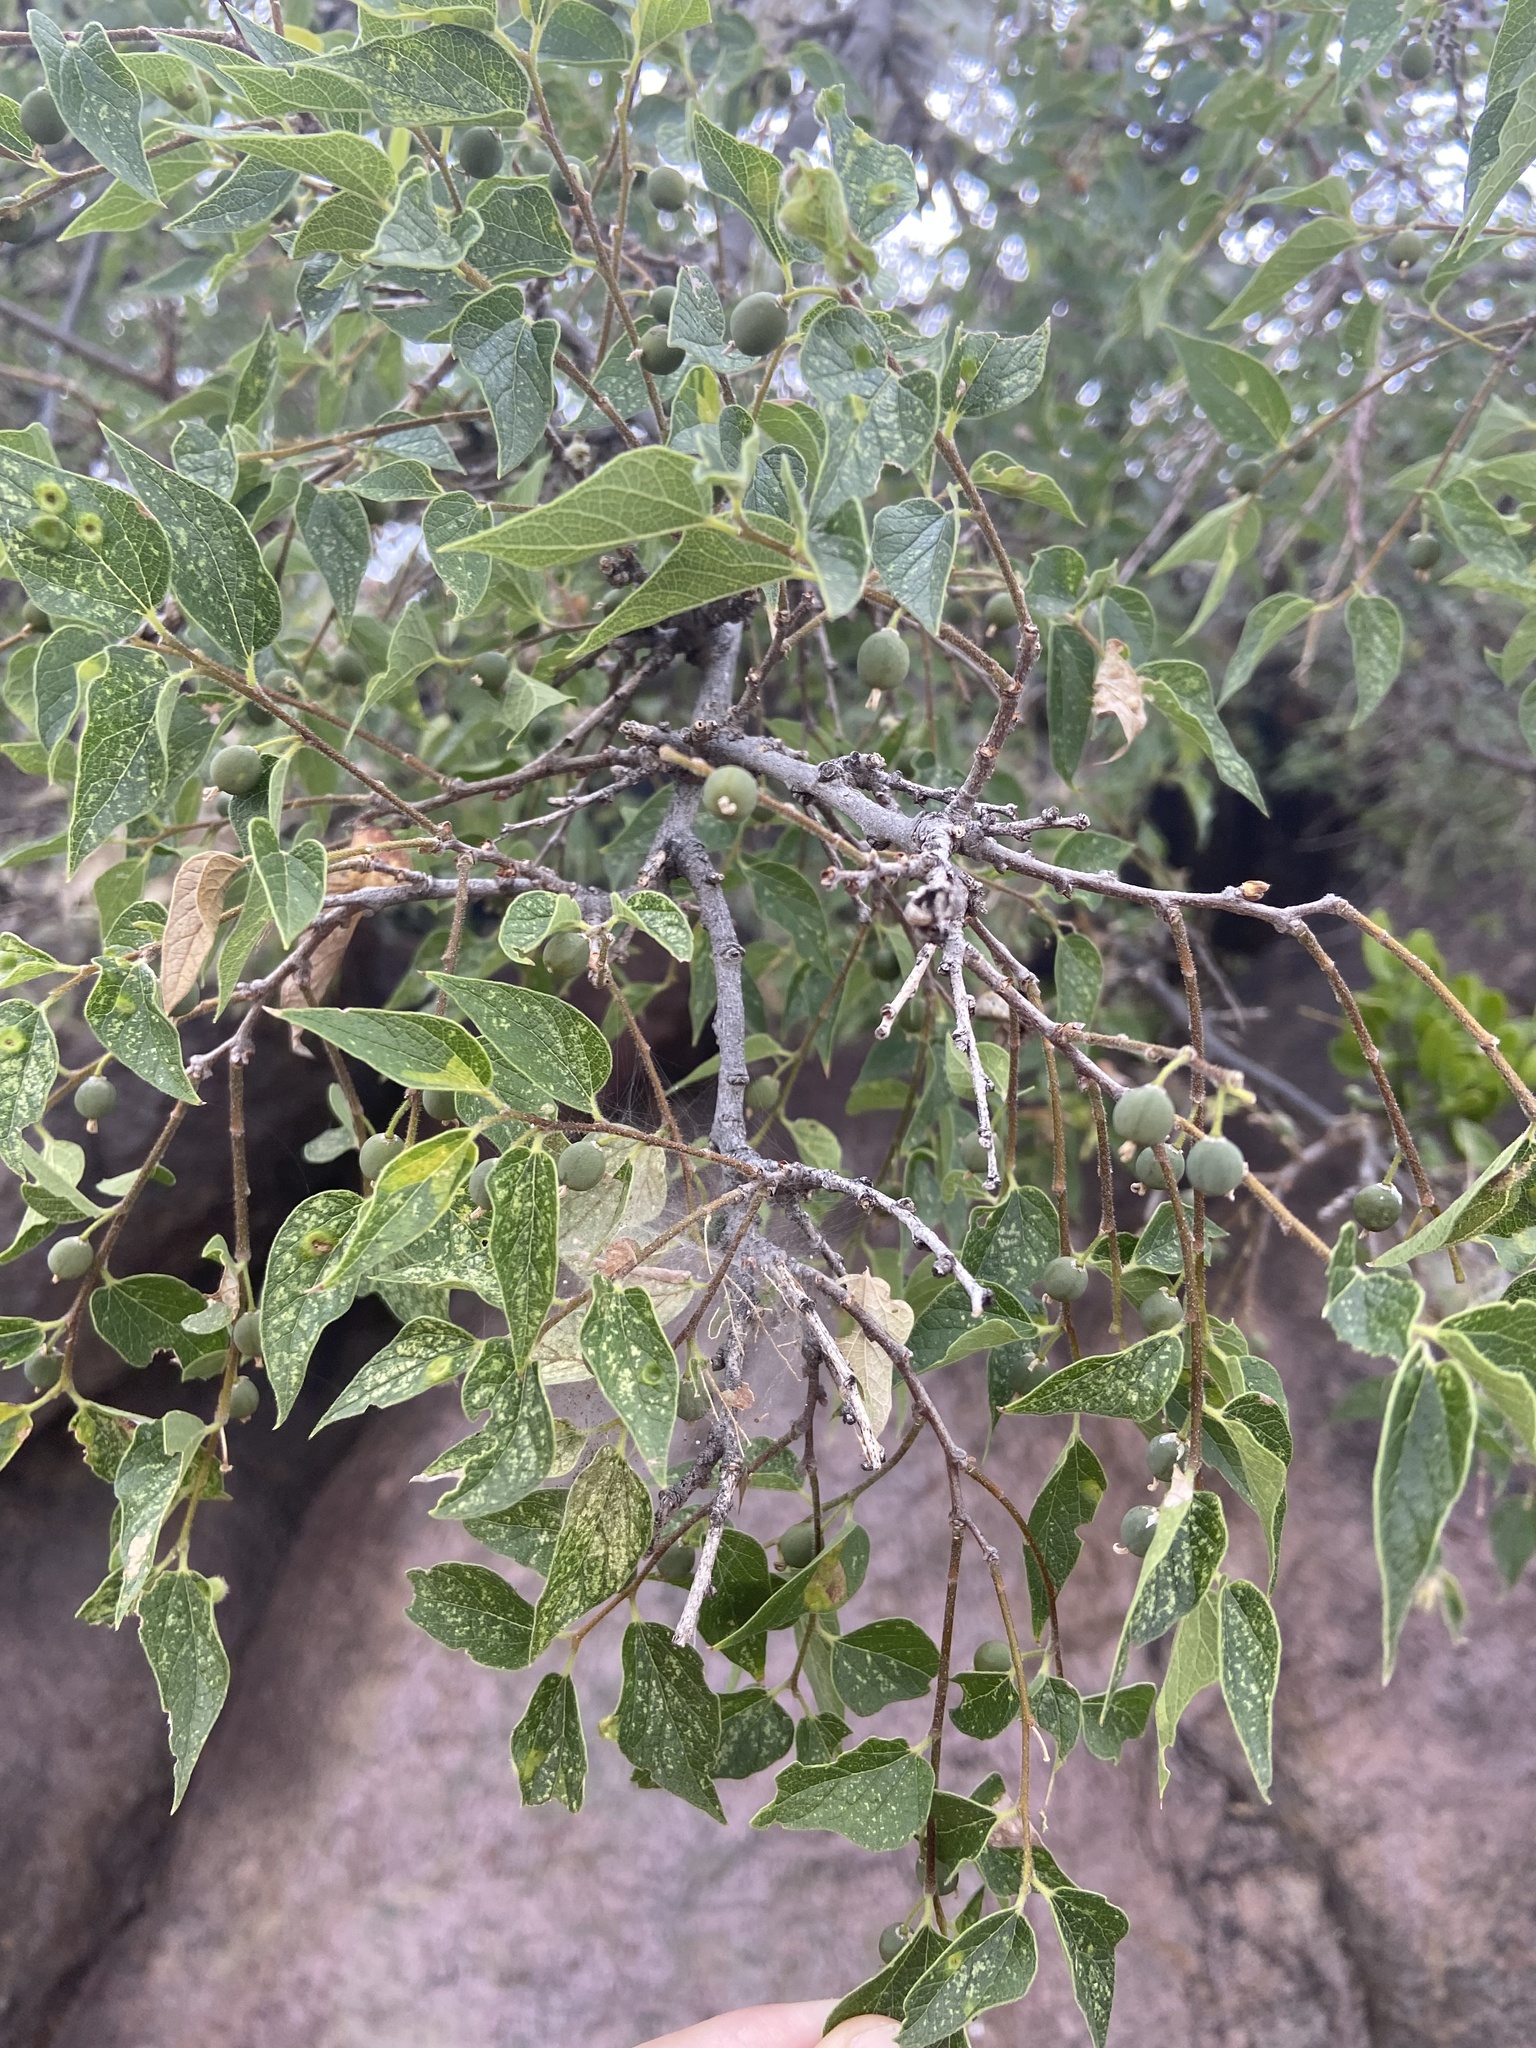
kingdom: Plantae
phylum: Tracheophyta
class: Magnoliopsida
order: Rosales
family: Cannabaceae
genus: Celtis
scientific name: Celtis reticulata
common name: Netleaf hackberry
